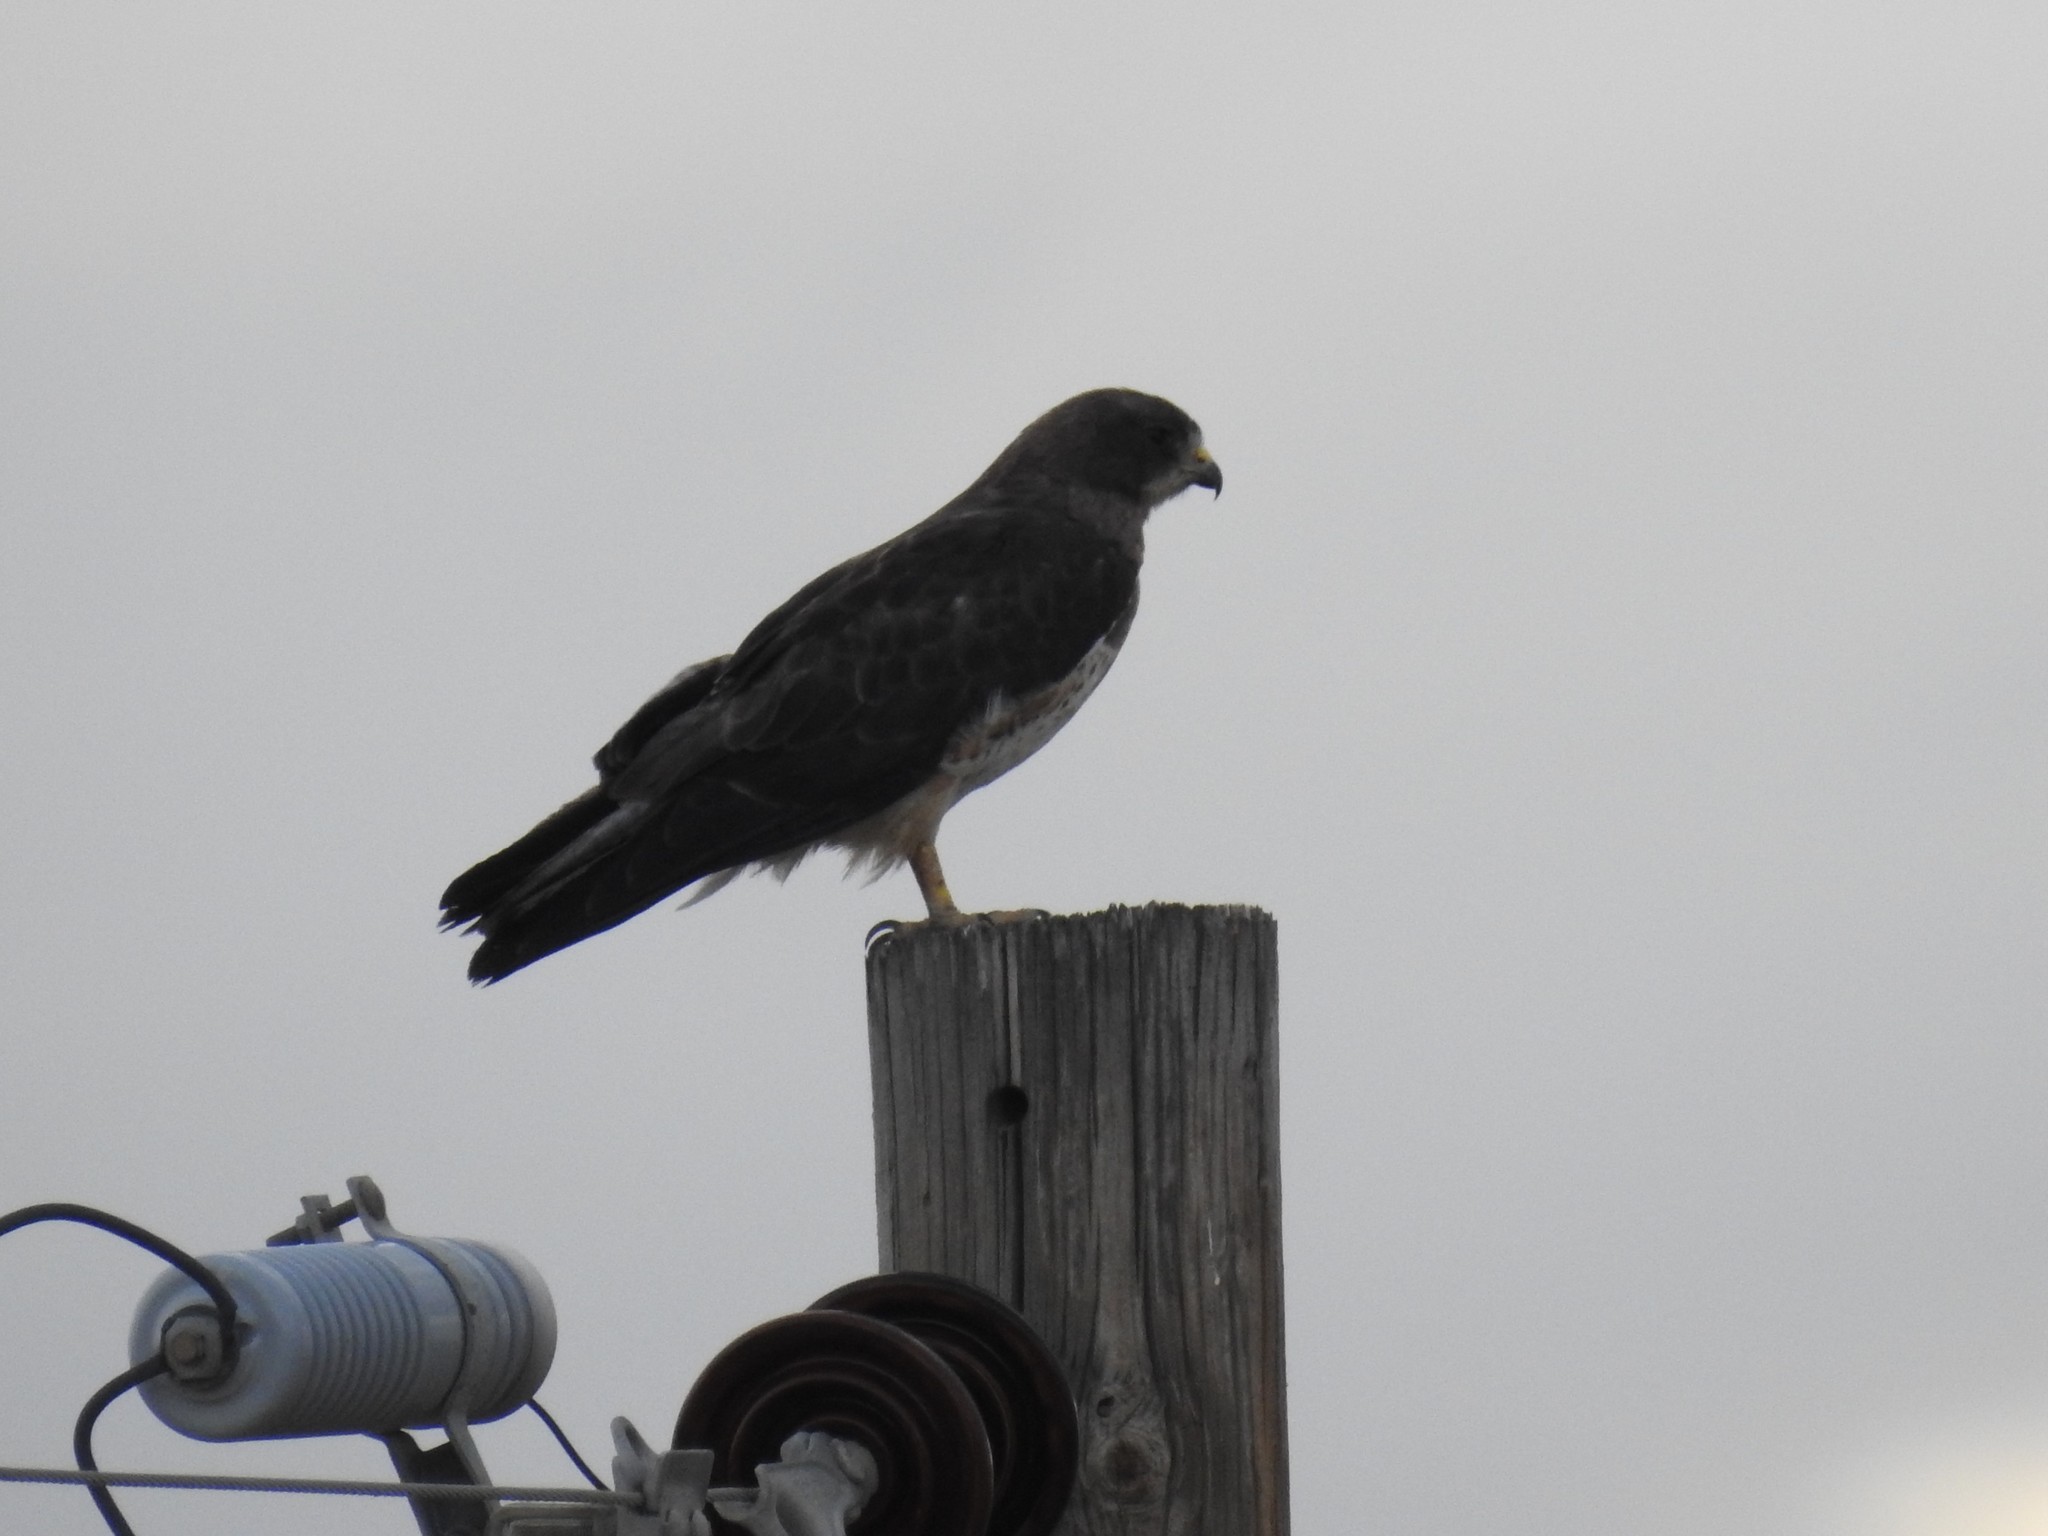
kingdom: Animalia
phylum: Chordata
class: Aves
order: Accipitriformes
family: Accipitridae
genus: Buteo
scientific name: Buteo swainsoni
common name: Swainson's hawk
